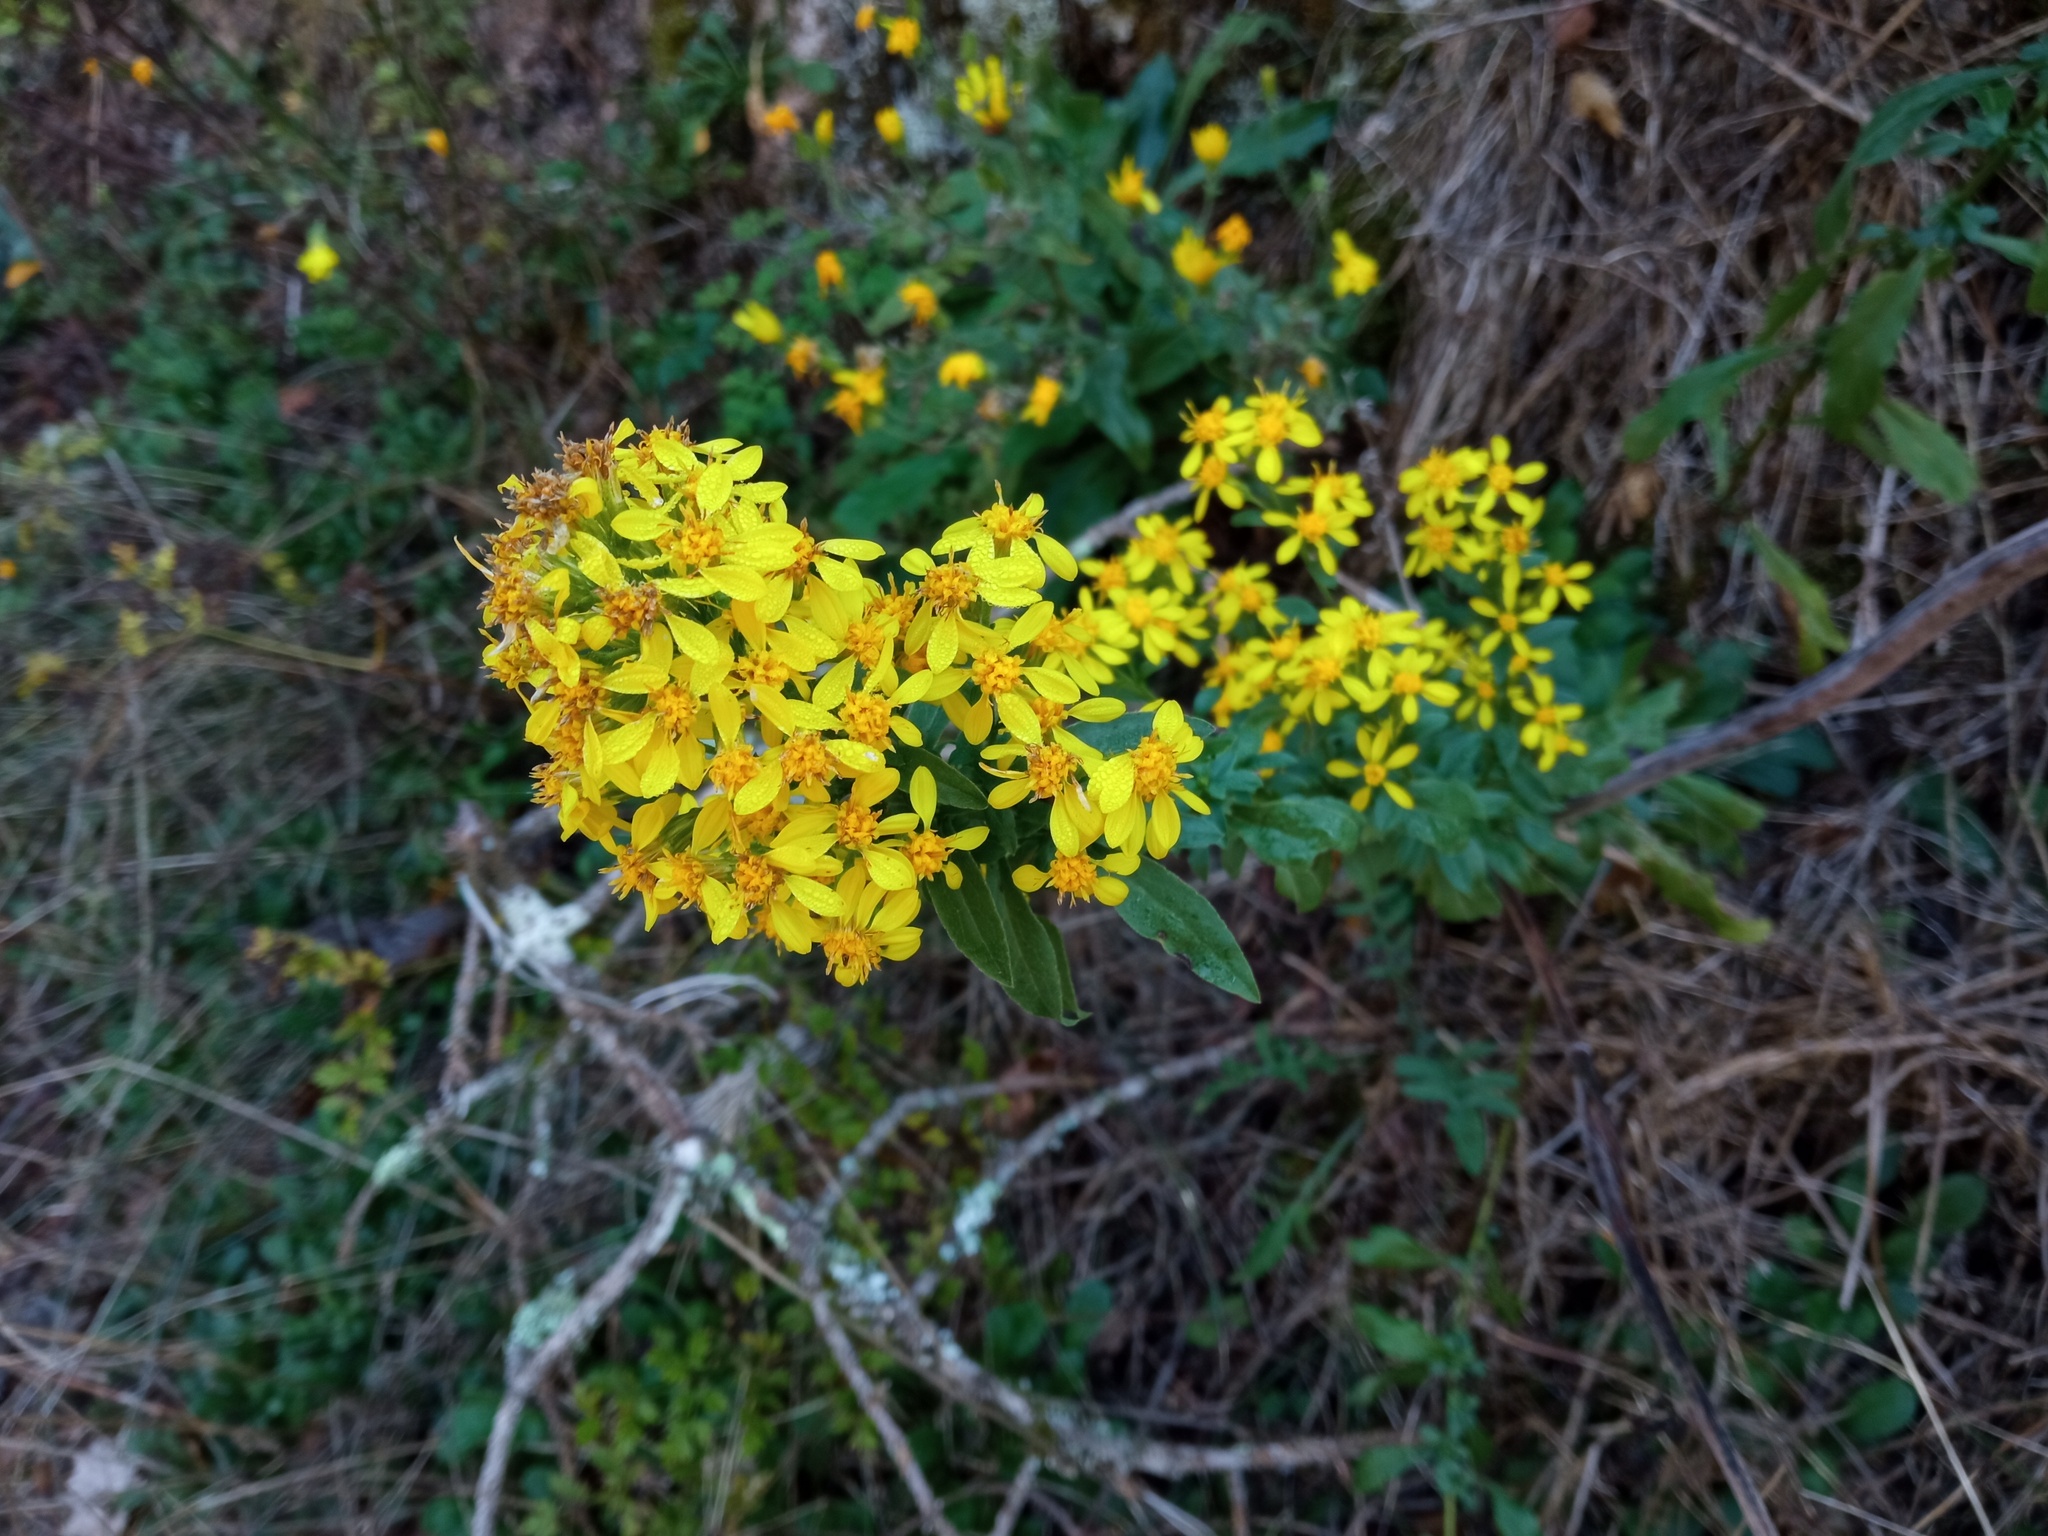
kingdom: Plantae
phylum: Tracheophyta
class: Magnoliopsida
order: Asterales
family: Asteraceae
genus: Solidago
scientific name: Solidago virgaurea
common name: Goldenrod
